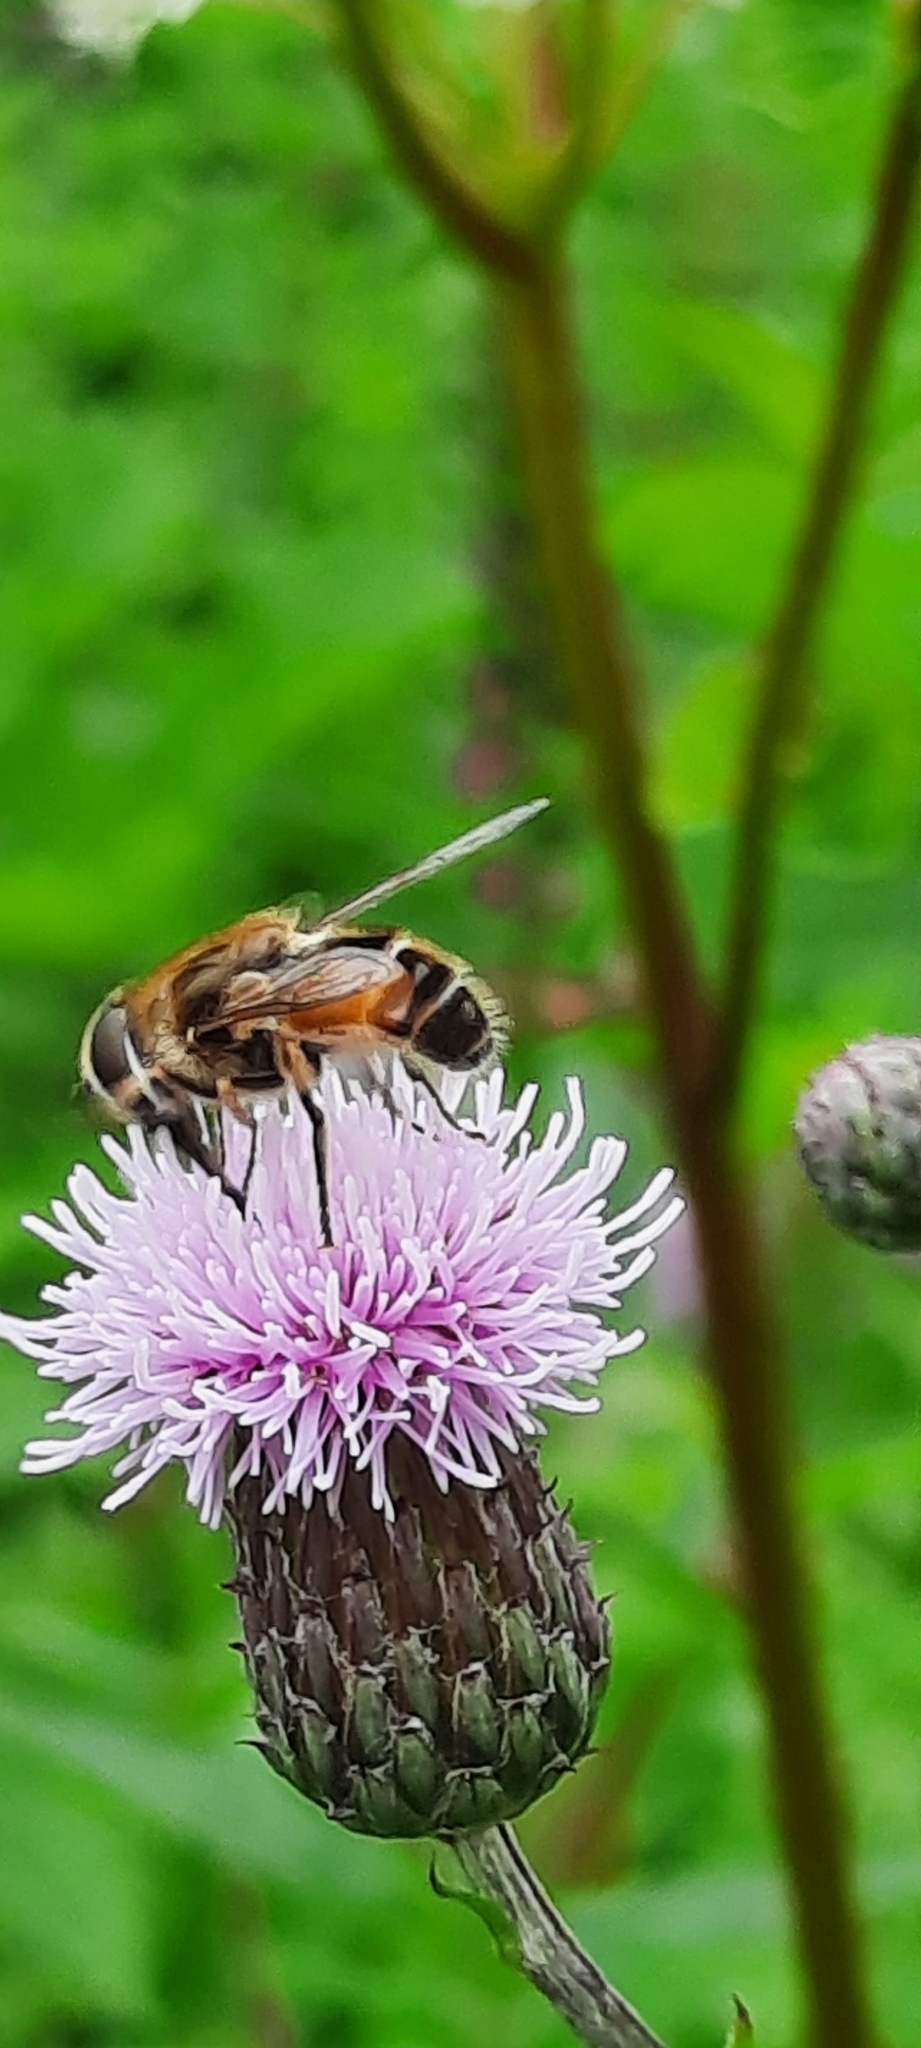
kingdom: Animalia
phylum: Arthropoda
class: Insecta
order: Diptera
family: Syrphidae
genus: Eristalis
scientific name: Eristalis arbustorum
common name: Hover fly
